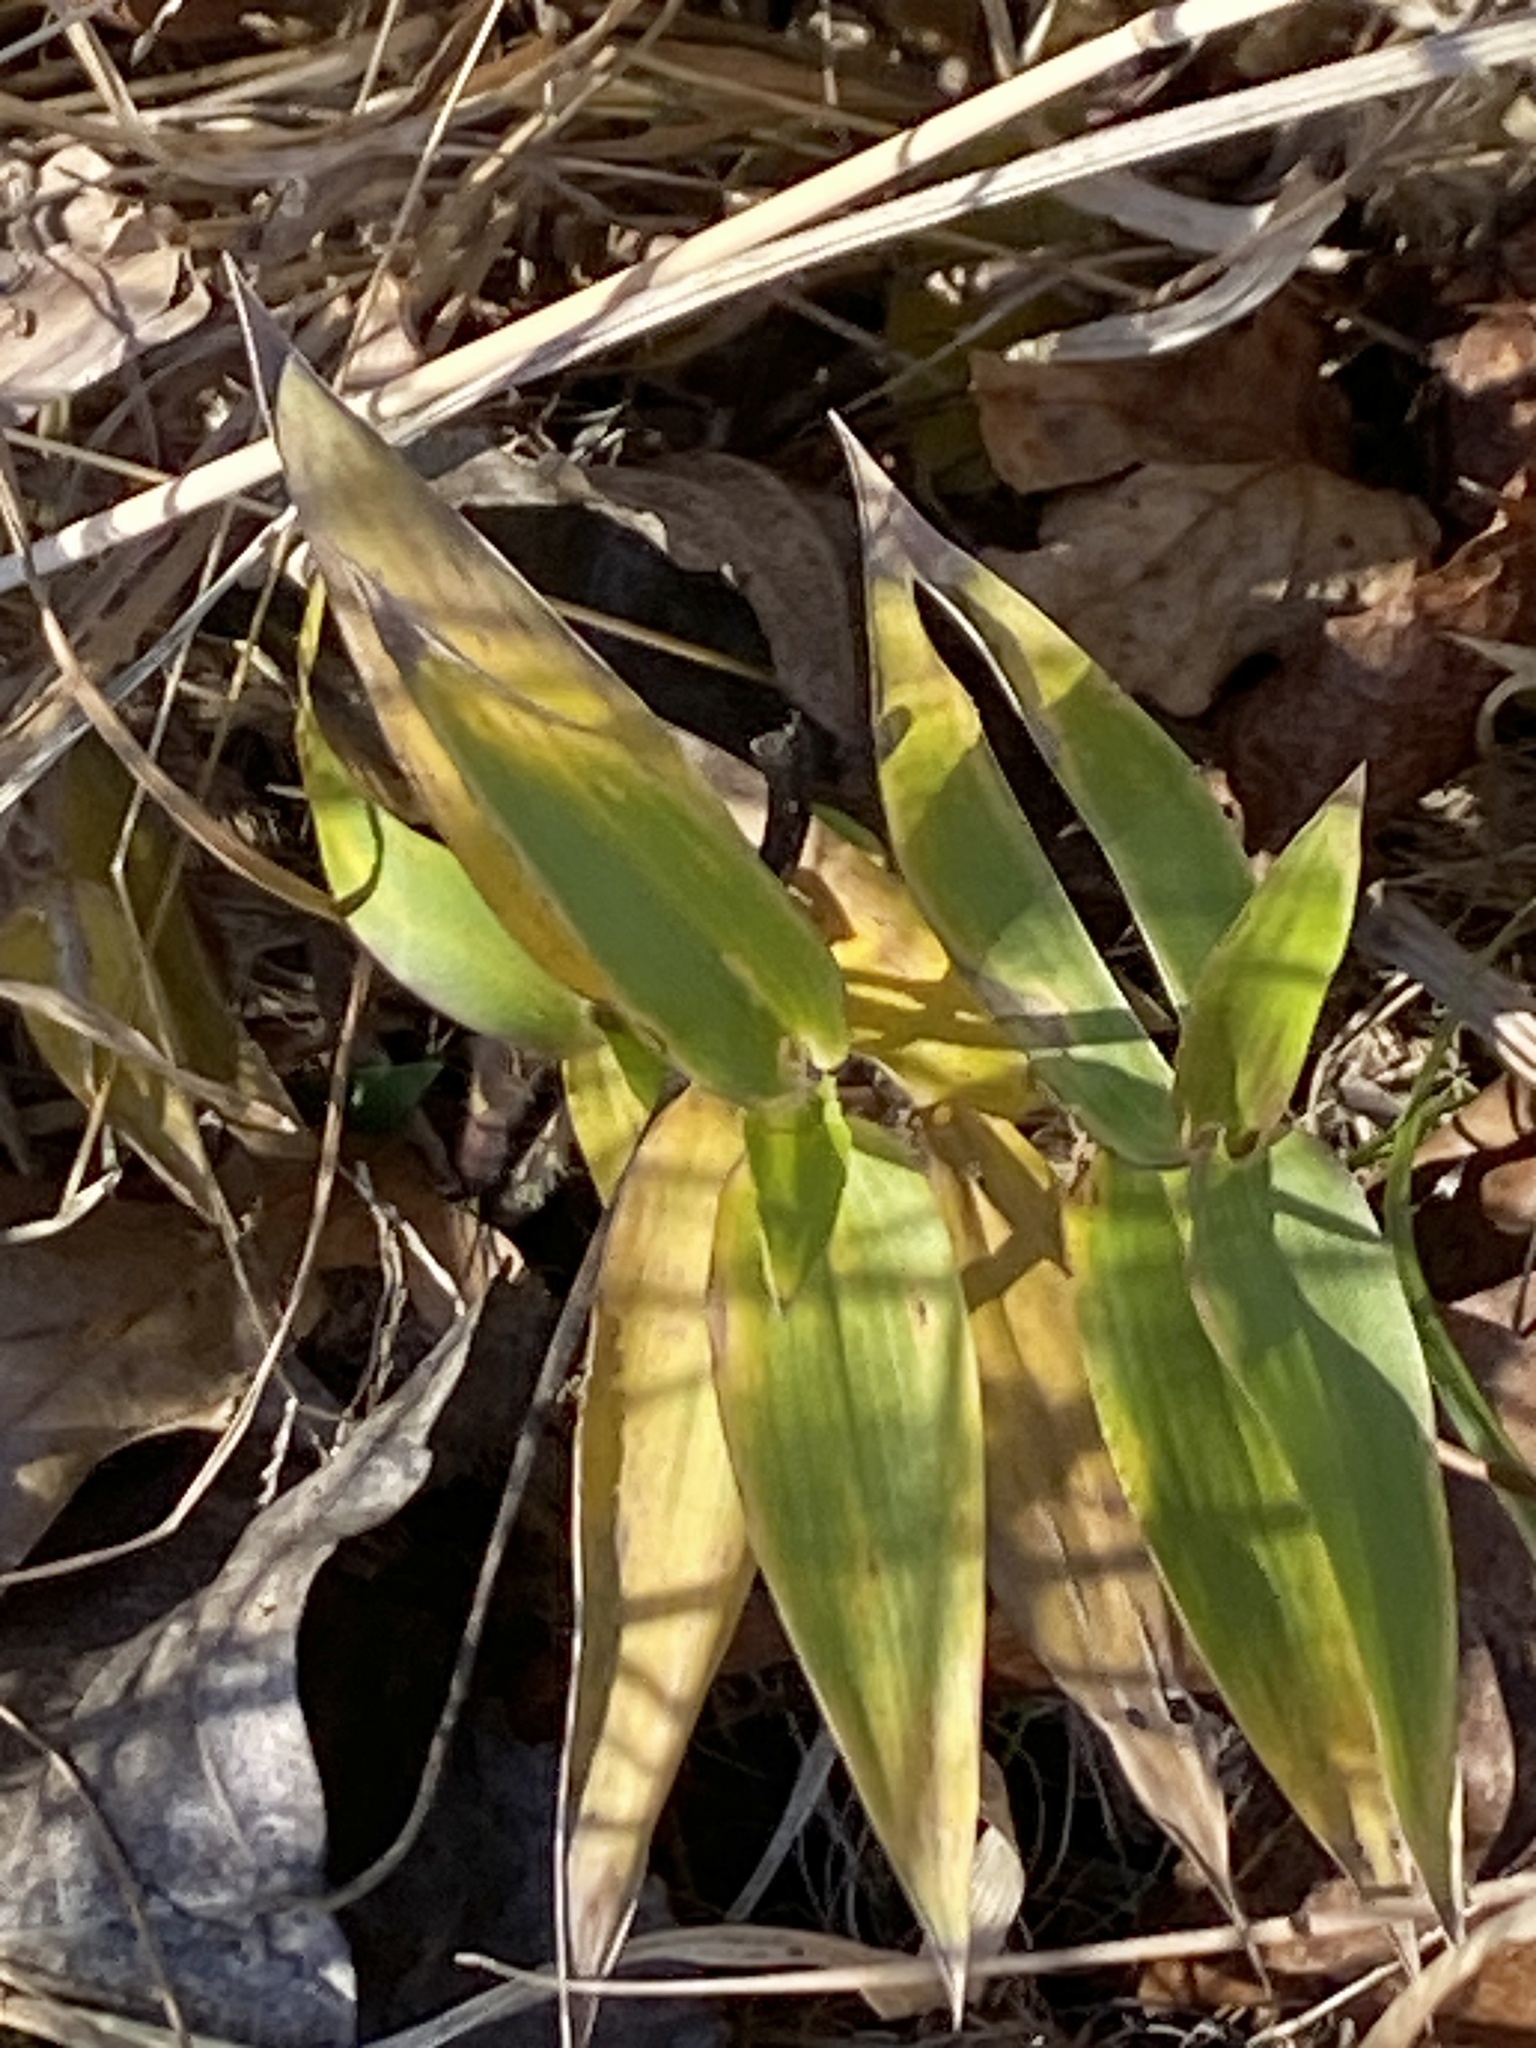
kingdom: Plantae
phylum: Tracheophyta
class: Liliopsida
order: Poales
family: Poaceae
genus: Dichanthelium
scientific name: Dichanthelium clandestinum
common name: Deer-tongue grass
